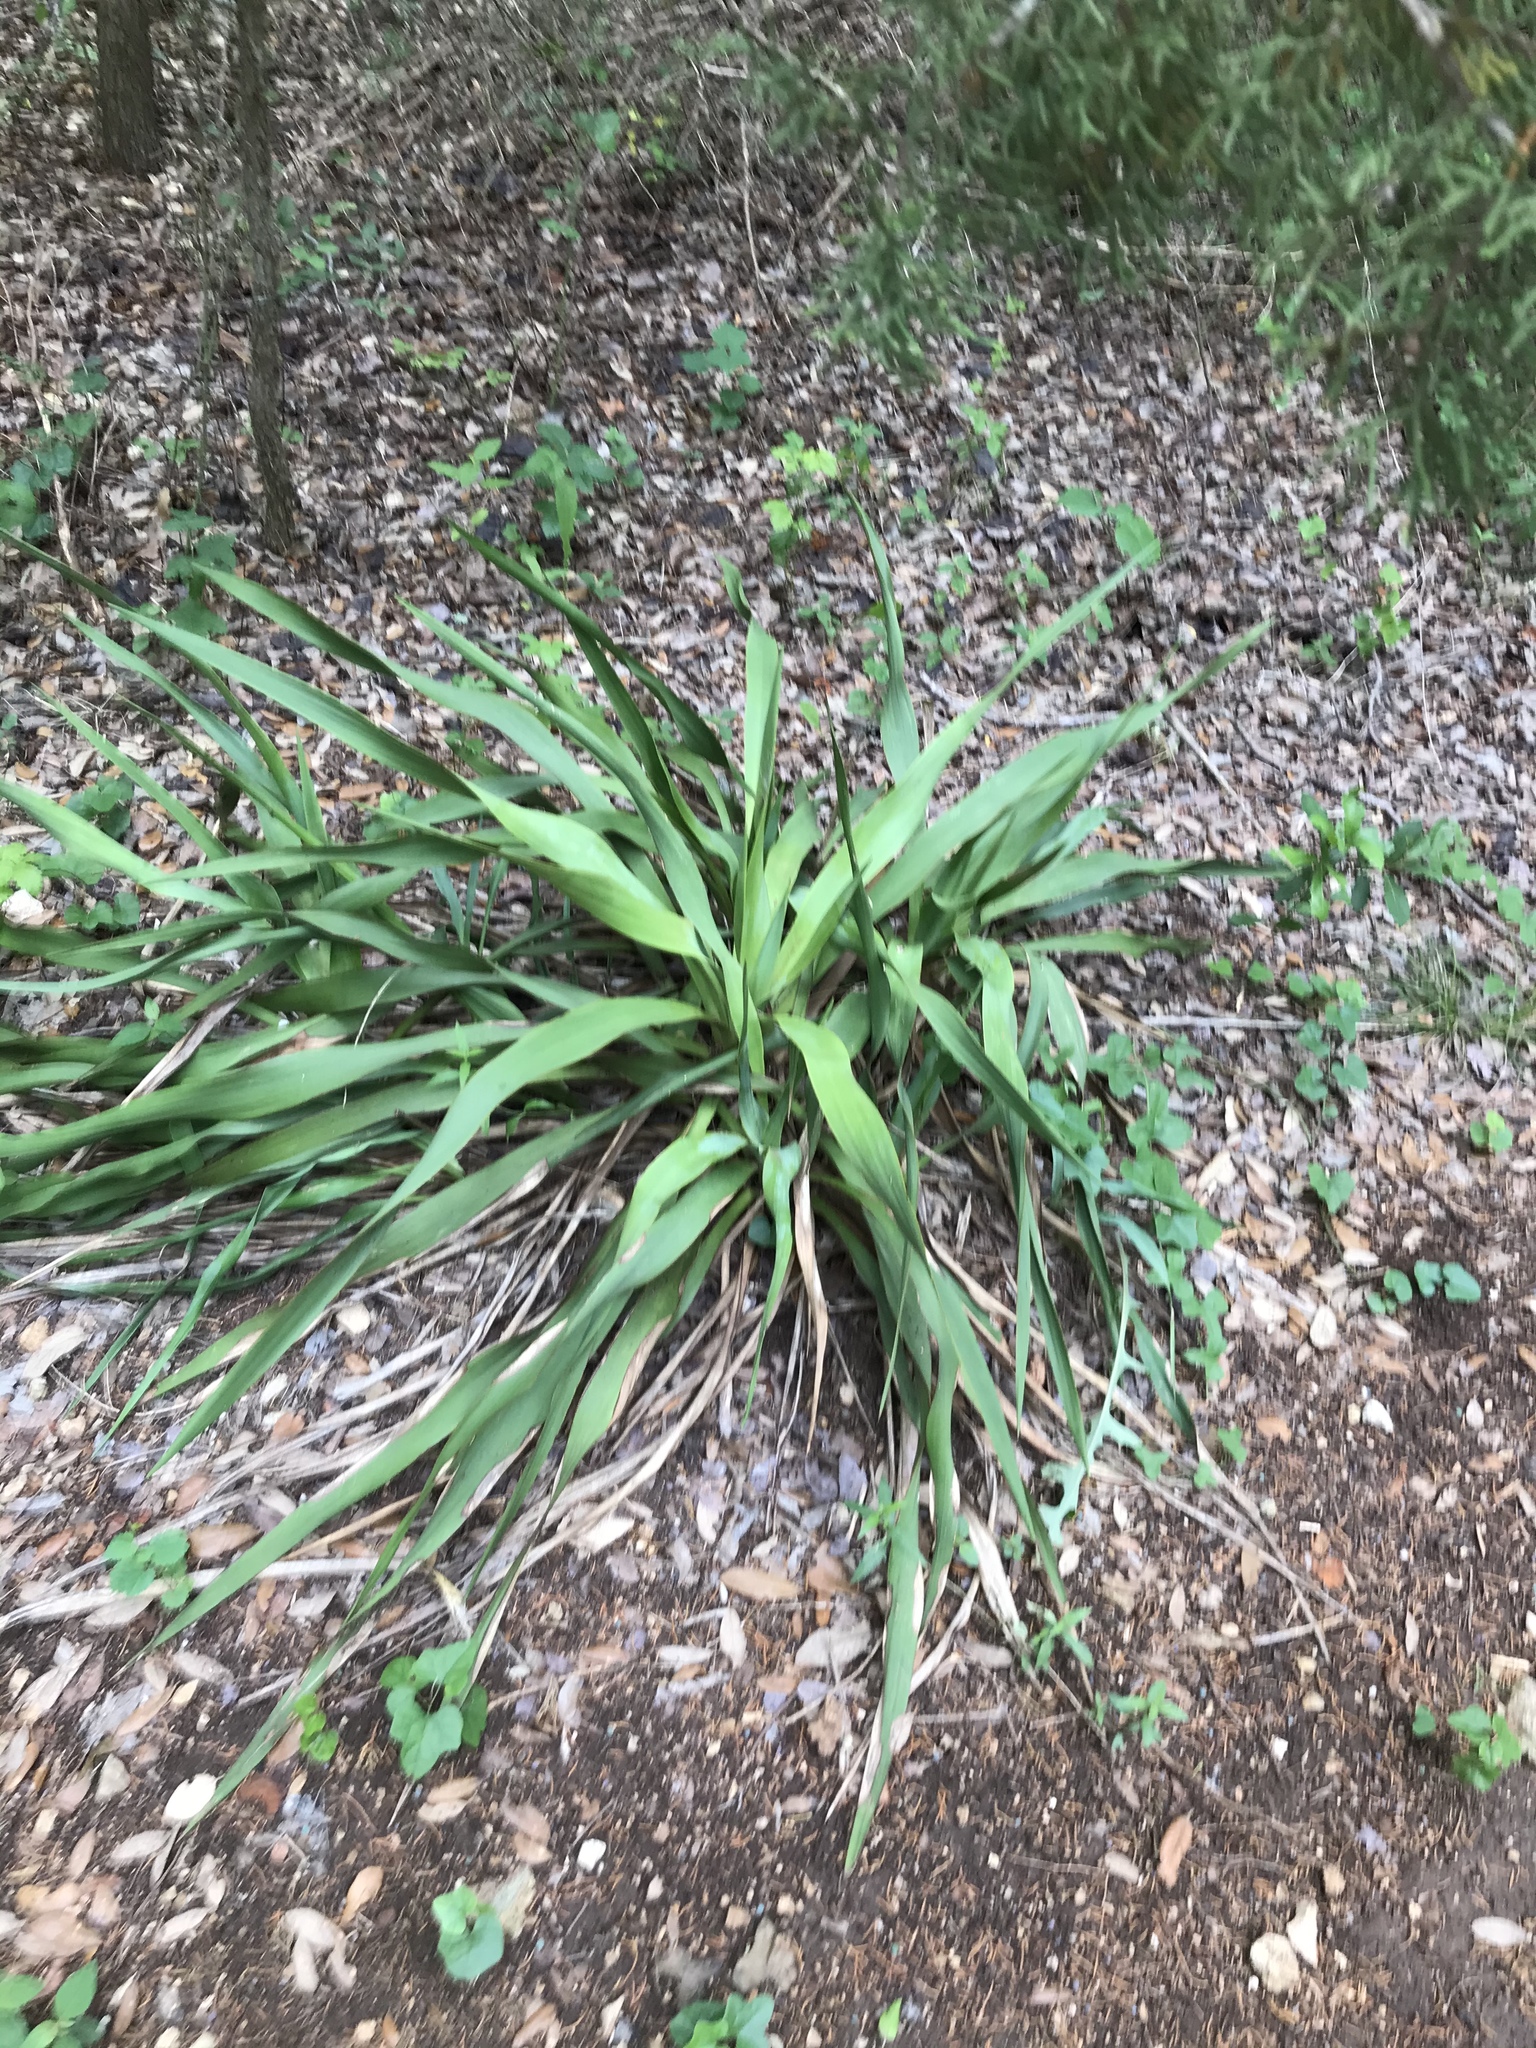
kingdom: Plantae
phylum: Tracheophyta
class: Liliopsida
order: Asparagales
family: Asparagaceae
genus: Yucca
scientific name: Yucca rupicola
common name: Twisted-leaf spanish-dagger
